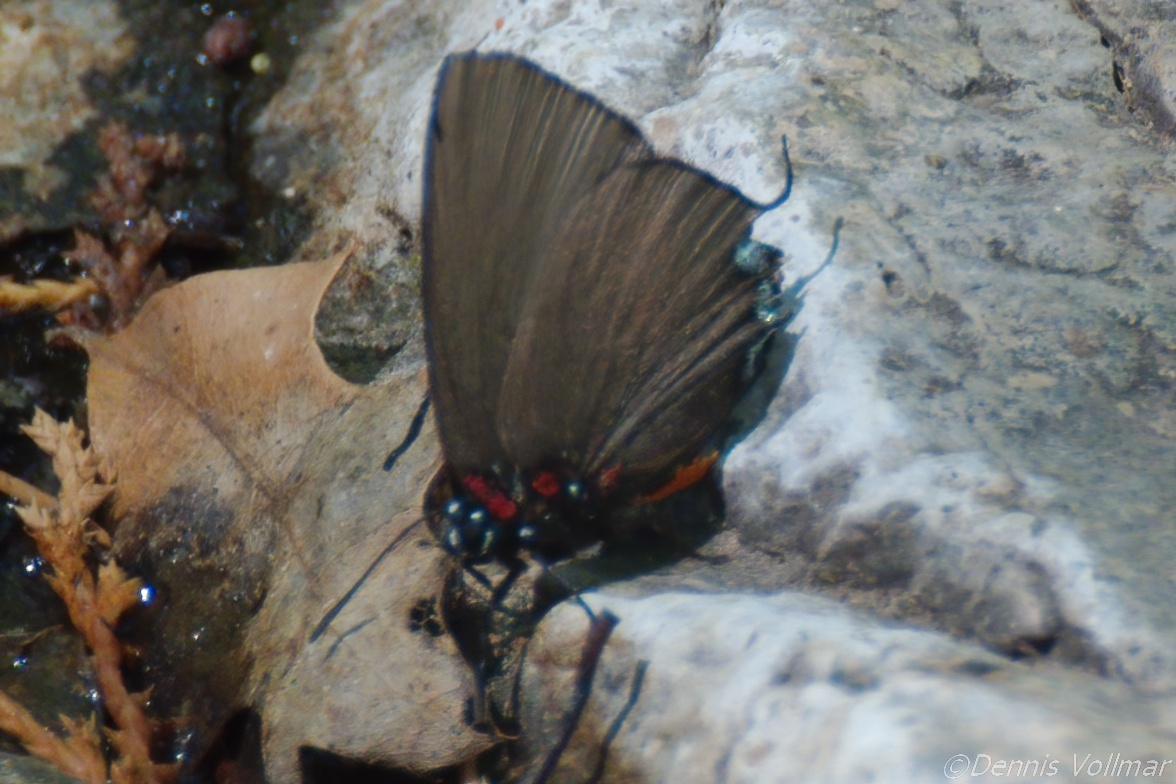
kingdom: Animalia
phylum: Arthropoda
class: Insecta
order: Lepidoptera
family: Lycaenidae
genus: Atlides
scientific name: Atlides halesus
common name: Great purple hairstreak
